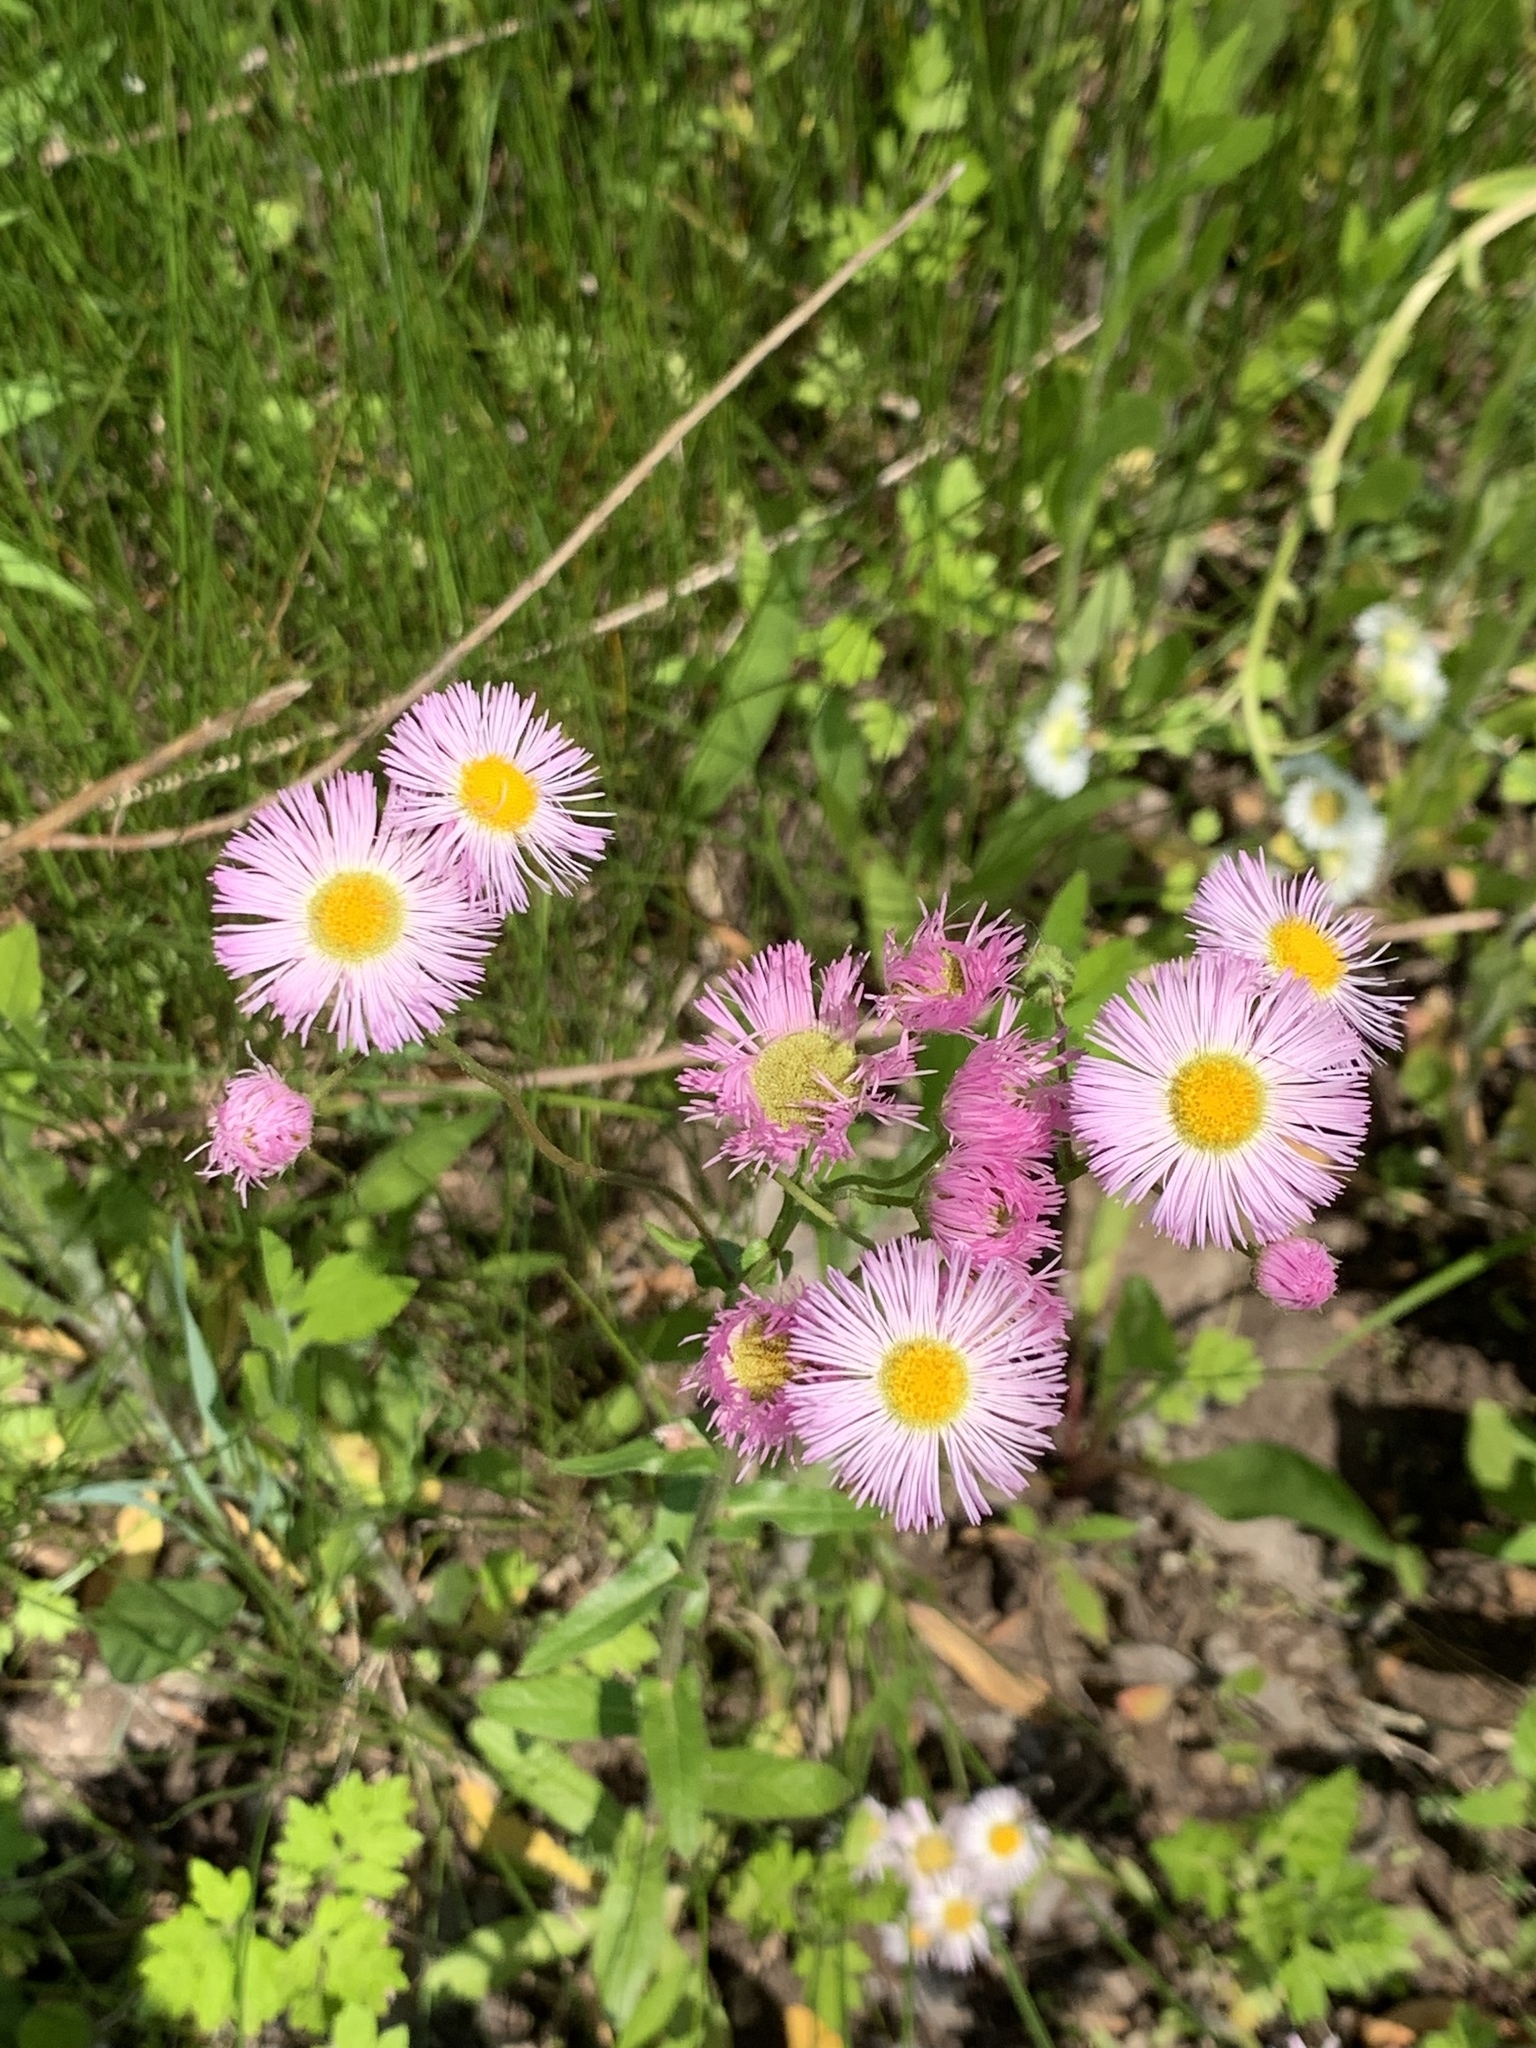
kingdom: Plantae
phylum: Tracheophyta
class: Magnoliopsida
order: Asterales
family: Asteraceae
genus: Erigeron
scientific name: Erigeron philadelphicus
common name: Robin's-plantain
